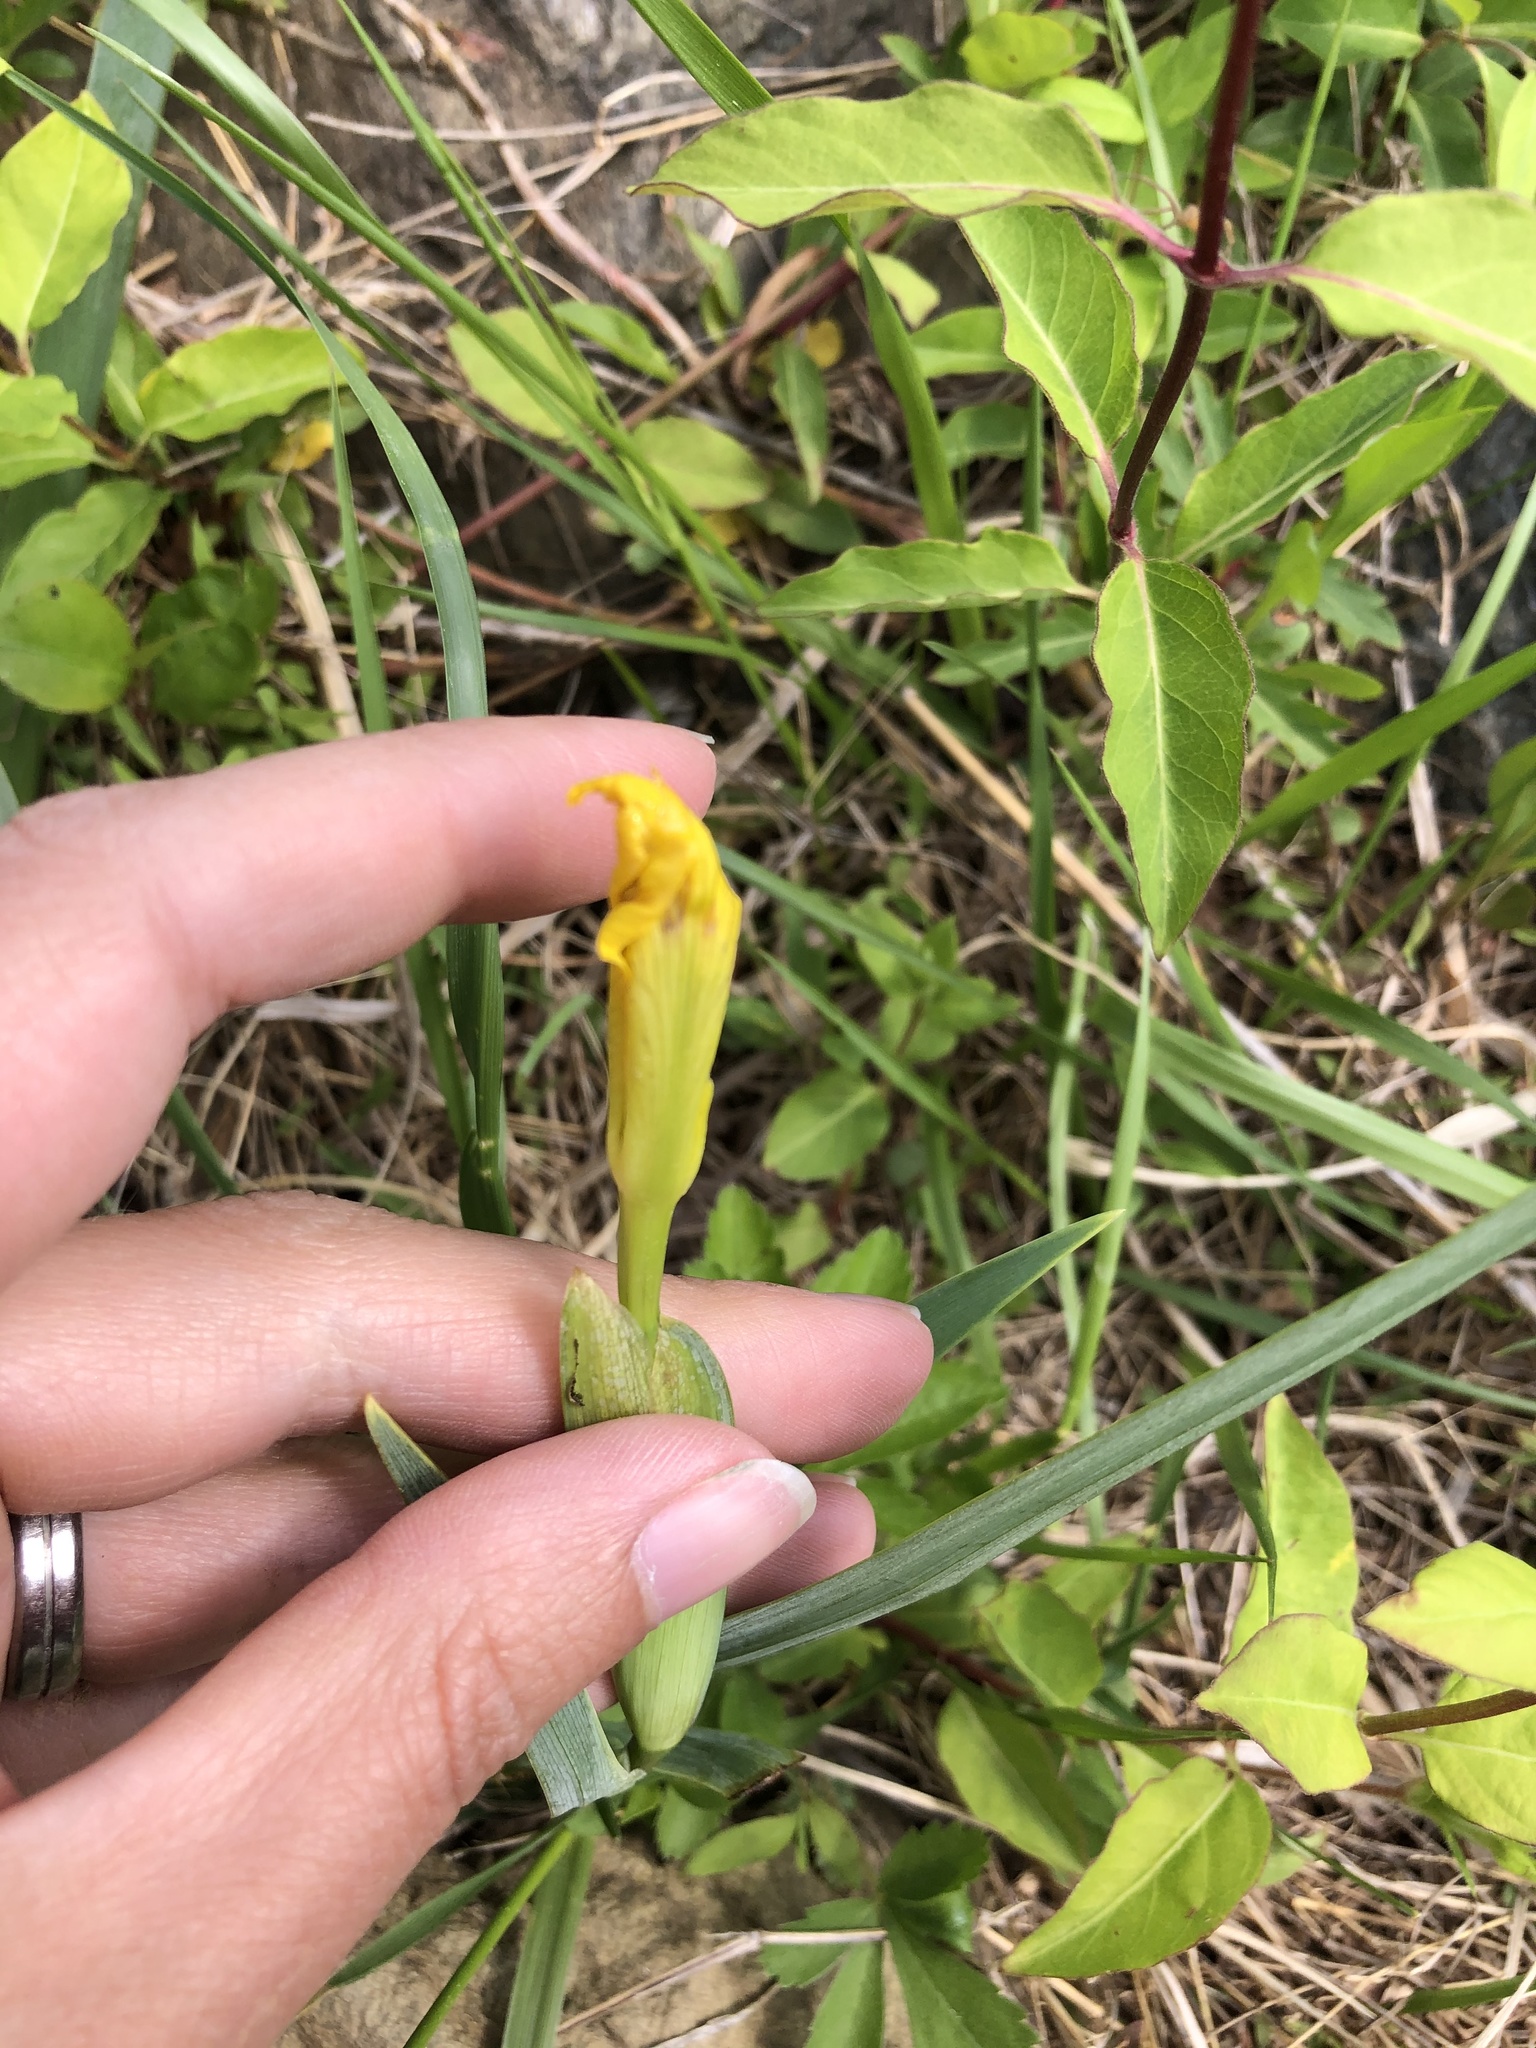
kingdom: Plantae
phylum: Tracheophyta
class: Liliopsida
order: Asparagales
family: Iridaceae
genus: Iris
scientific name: Iris pseudacorus
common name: Yellow flag
